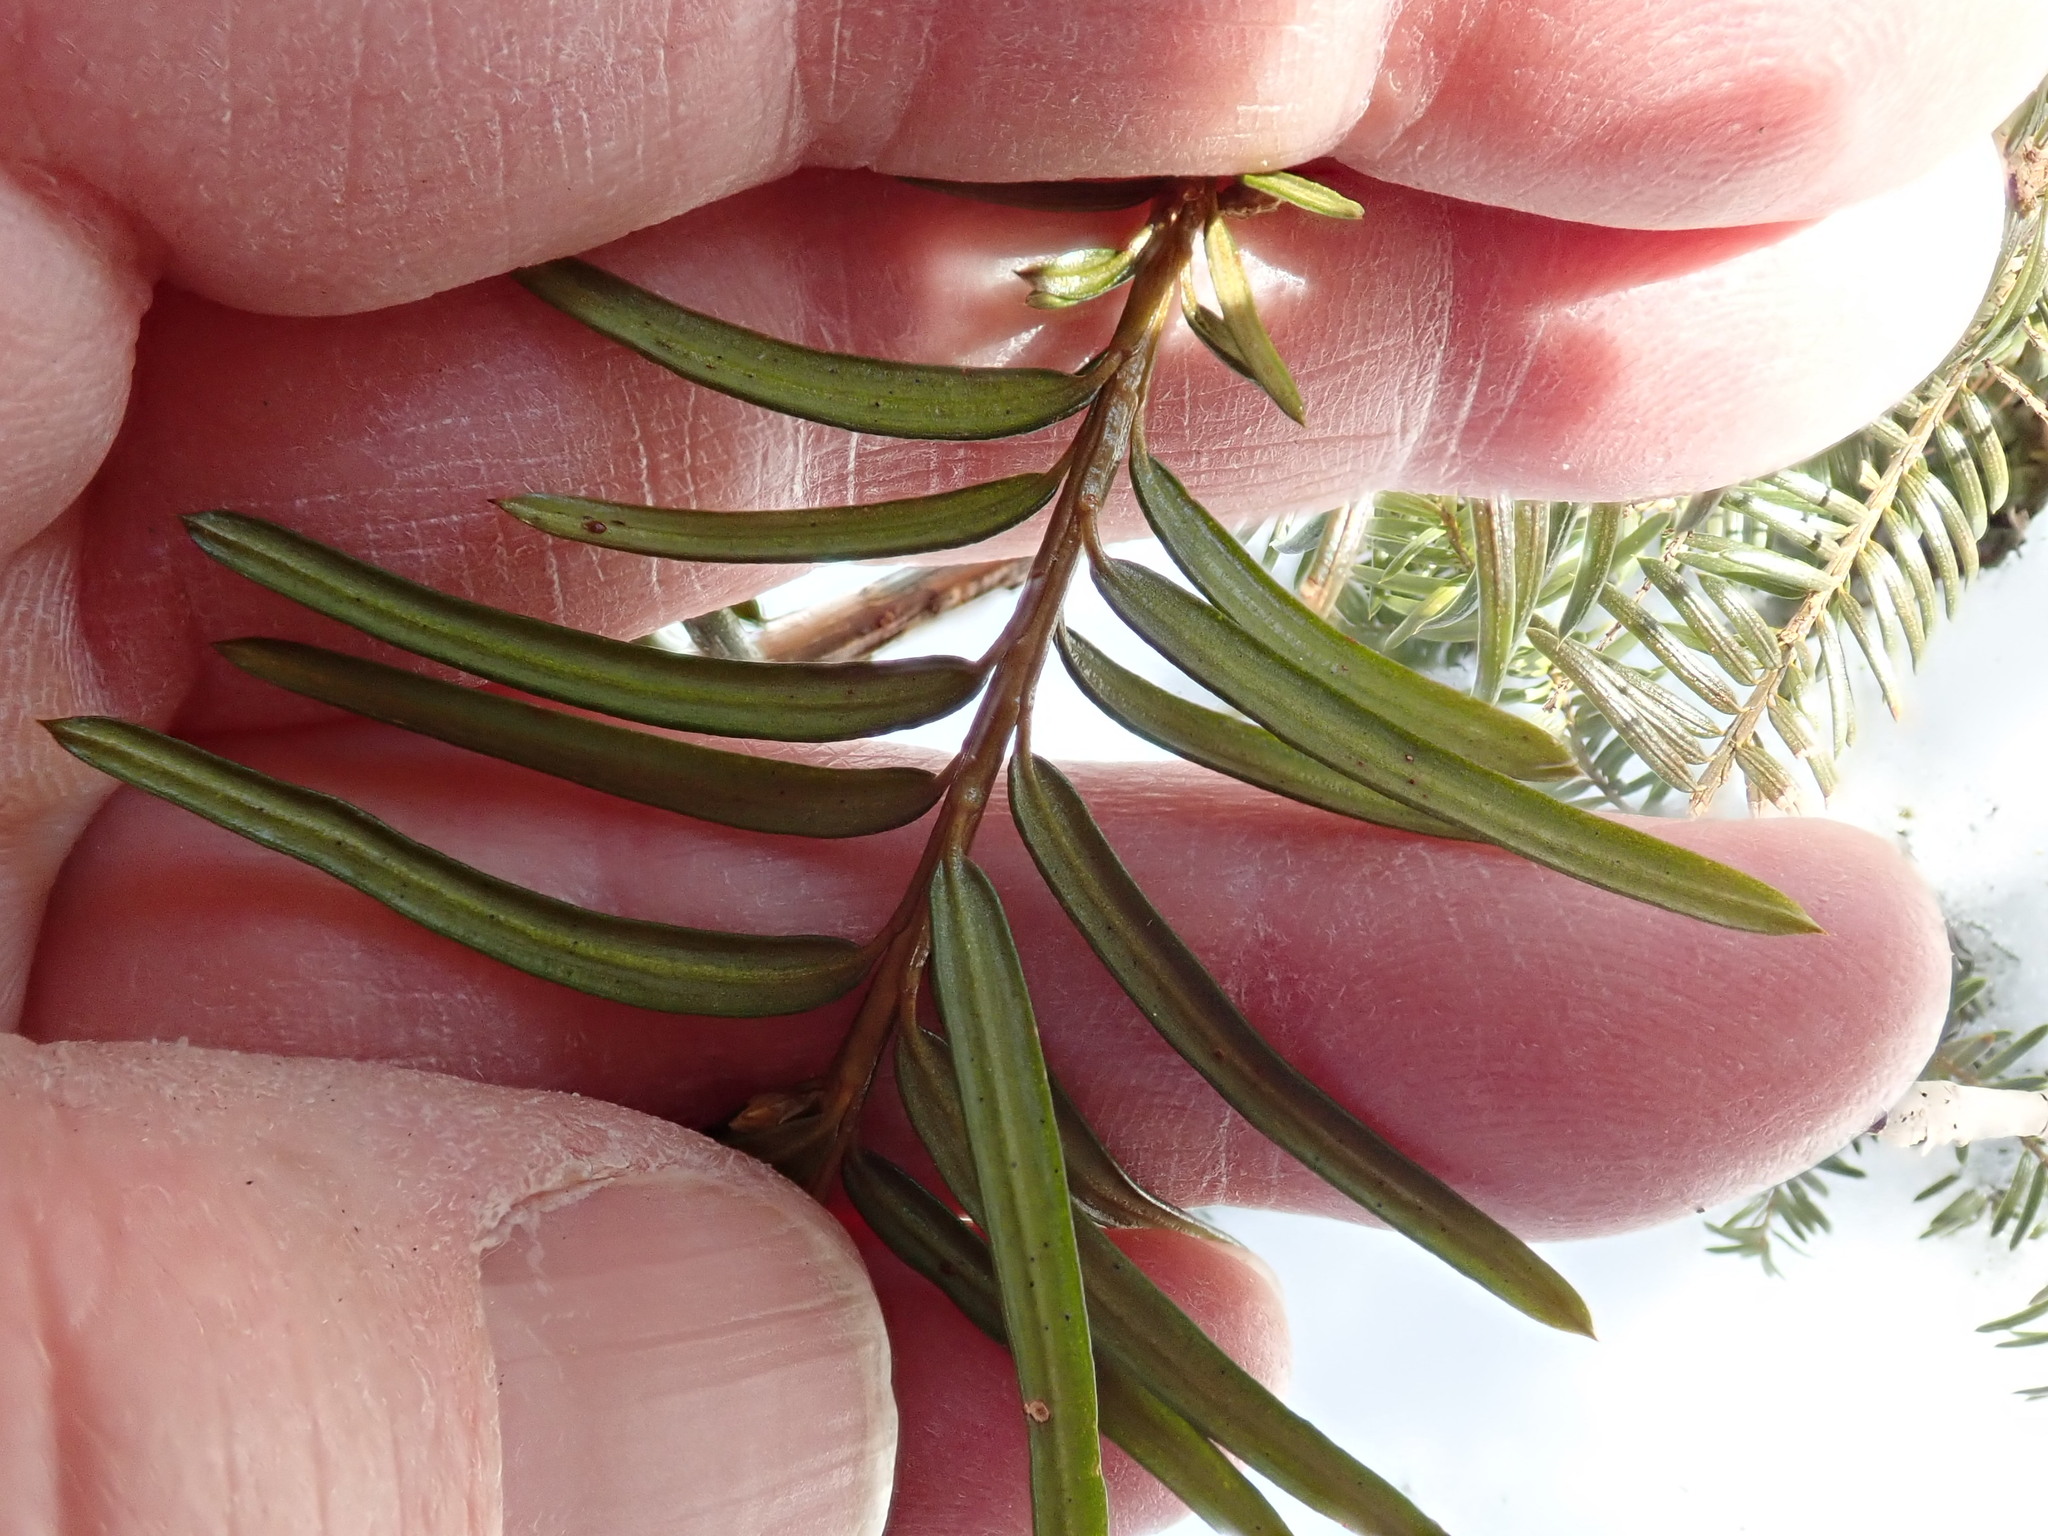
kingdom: Plantae
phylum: Tracheophyta
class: Pinopsida
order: Pinales
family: Taxaceae
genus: Taxus
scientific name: Taxus canadensis
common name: American yew
